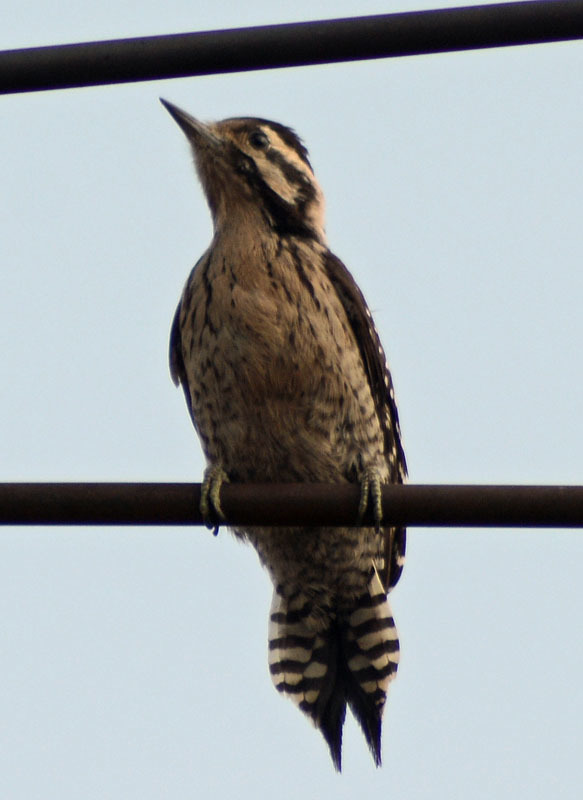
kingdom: Animalia
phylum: Chordata
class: Aves
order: Piciformes
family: Picidae
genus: Dryobates
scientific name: Dryobates scalaris
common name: Ladder-backed woodpecker
